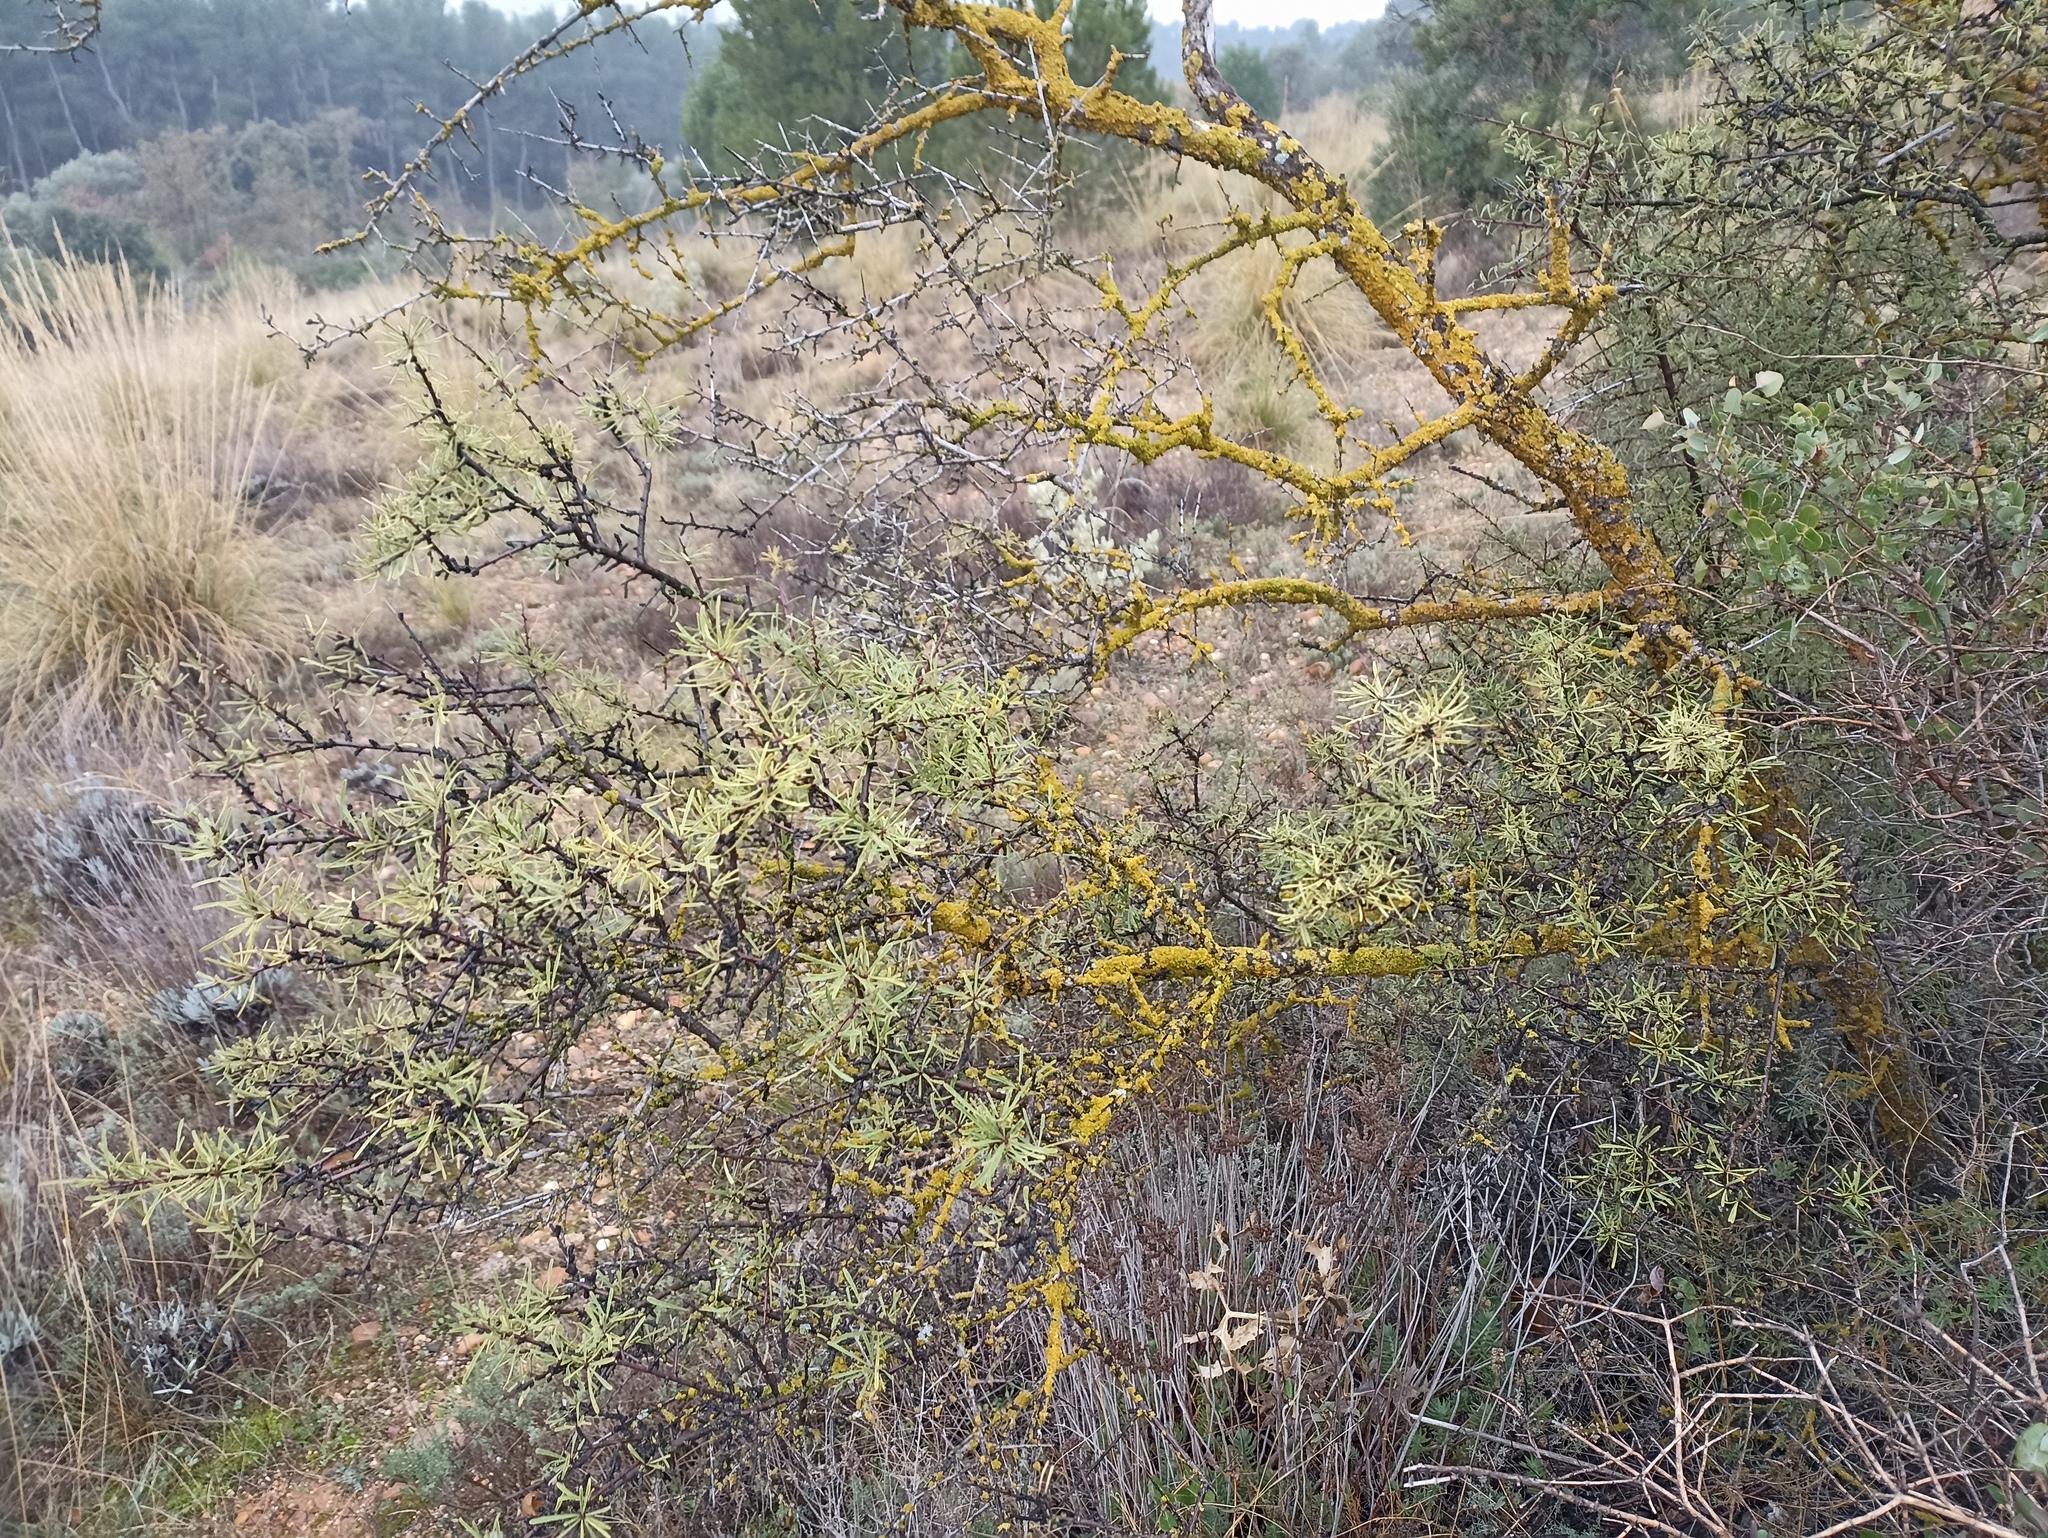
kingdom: Plantae
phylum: Tracheophyta
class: Magnoliopsida
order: Rosales
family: Rhamnaceae
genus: Rhamnus
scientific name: Rhamnus lycioides
